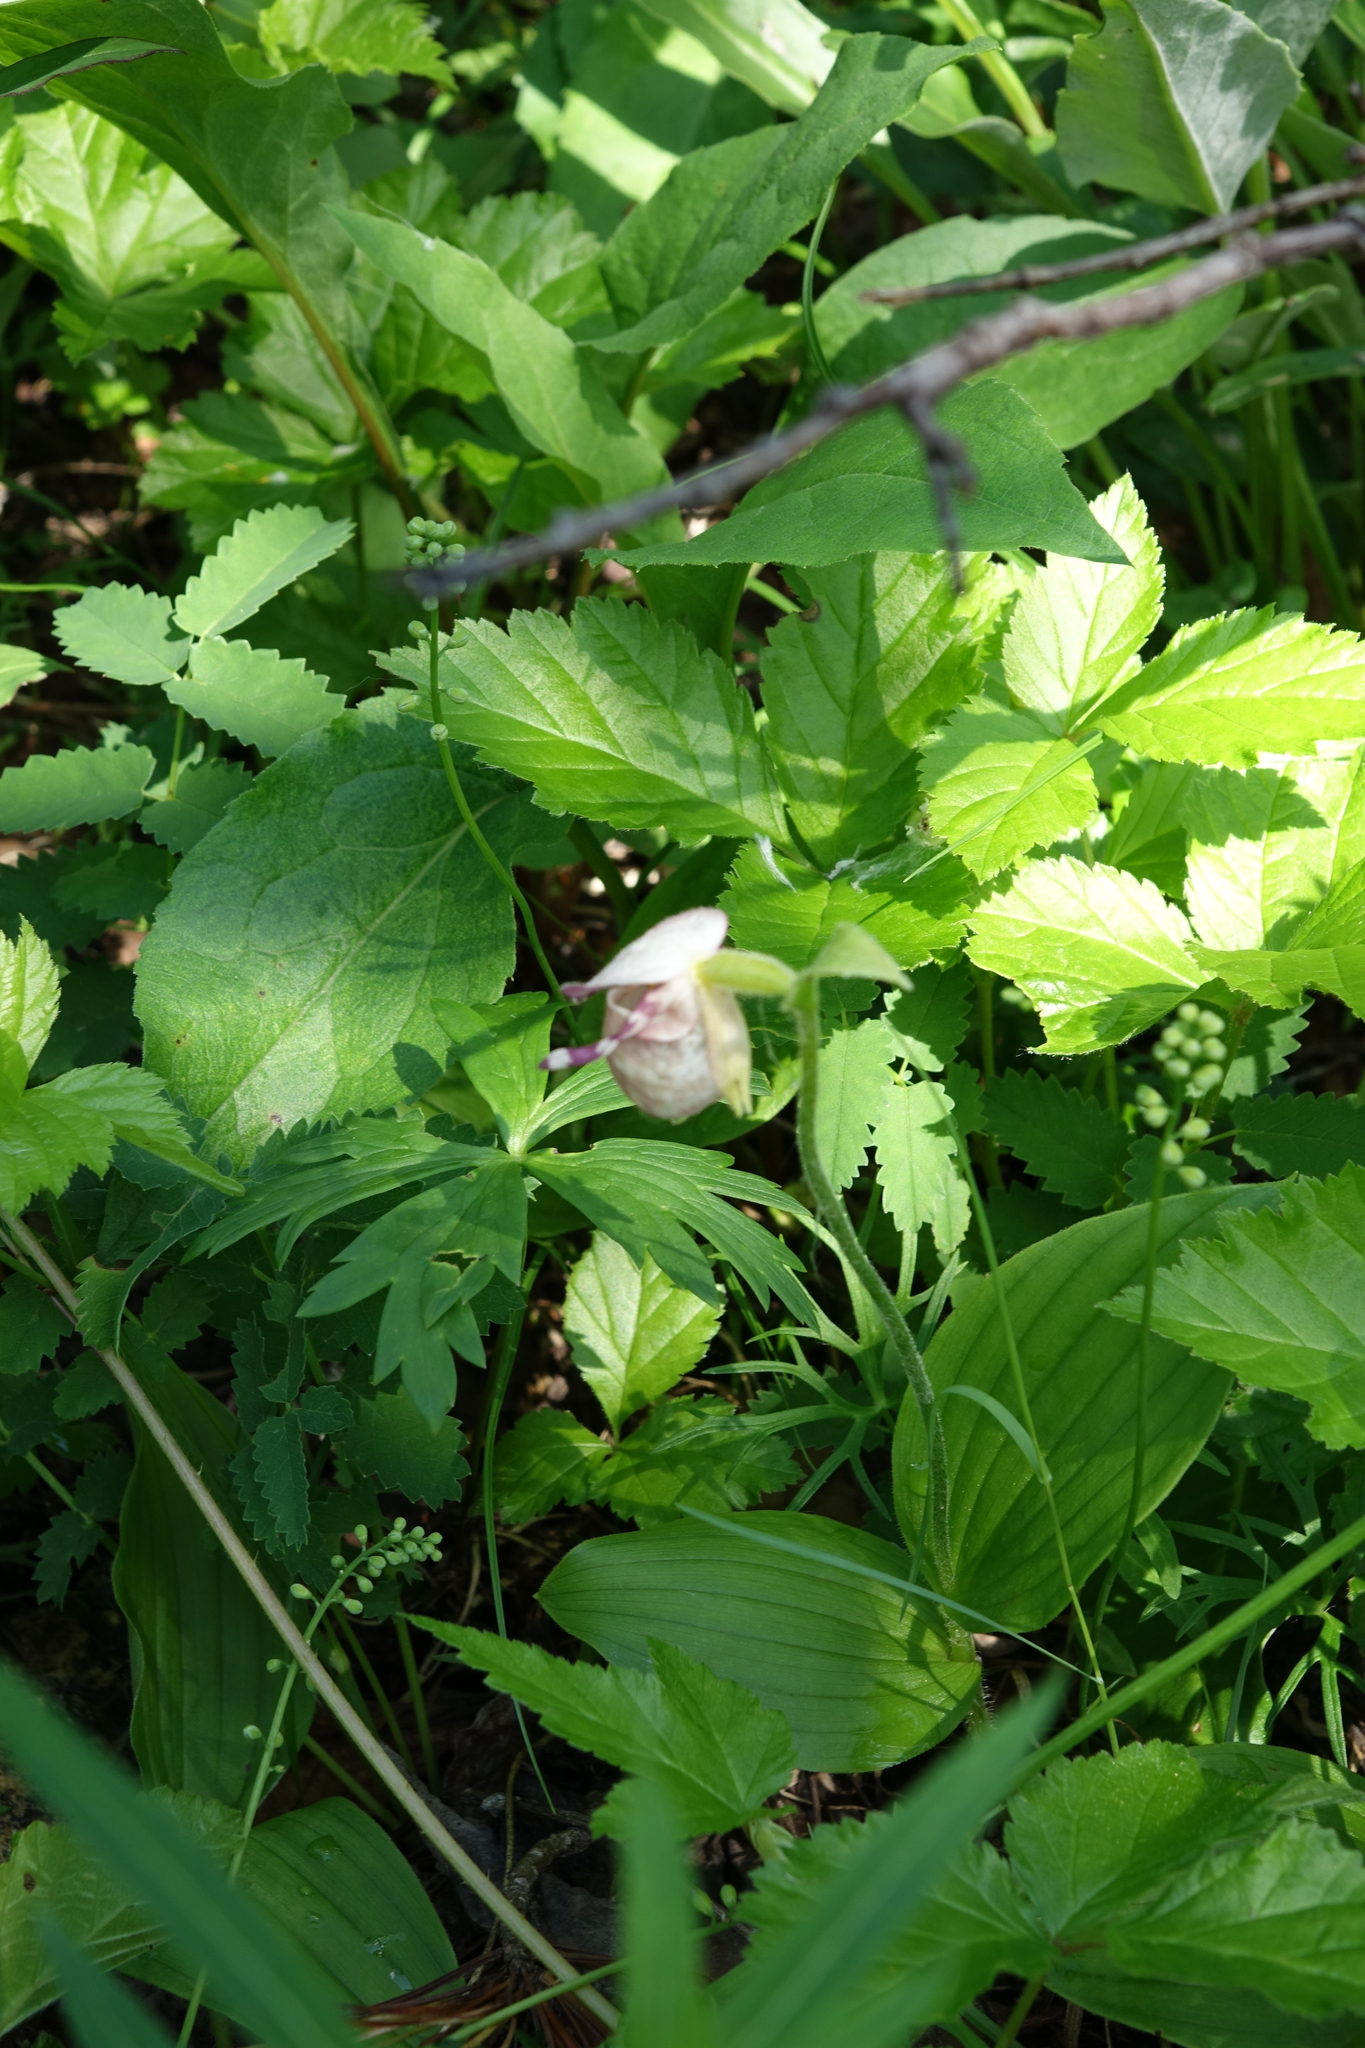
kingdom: Plantae
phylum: Tracheophyta
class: Liliopsida
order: Asparagales
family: Orchidaceae
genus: Cypripedium
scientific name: Cypripedium guttatum
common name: Pink lady slipper
